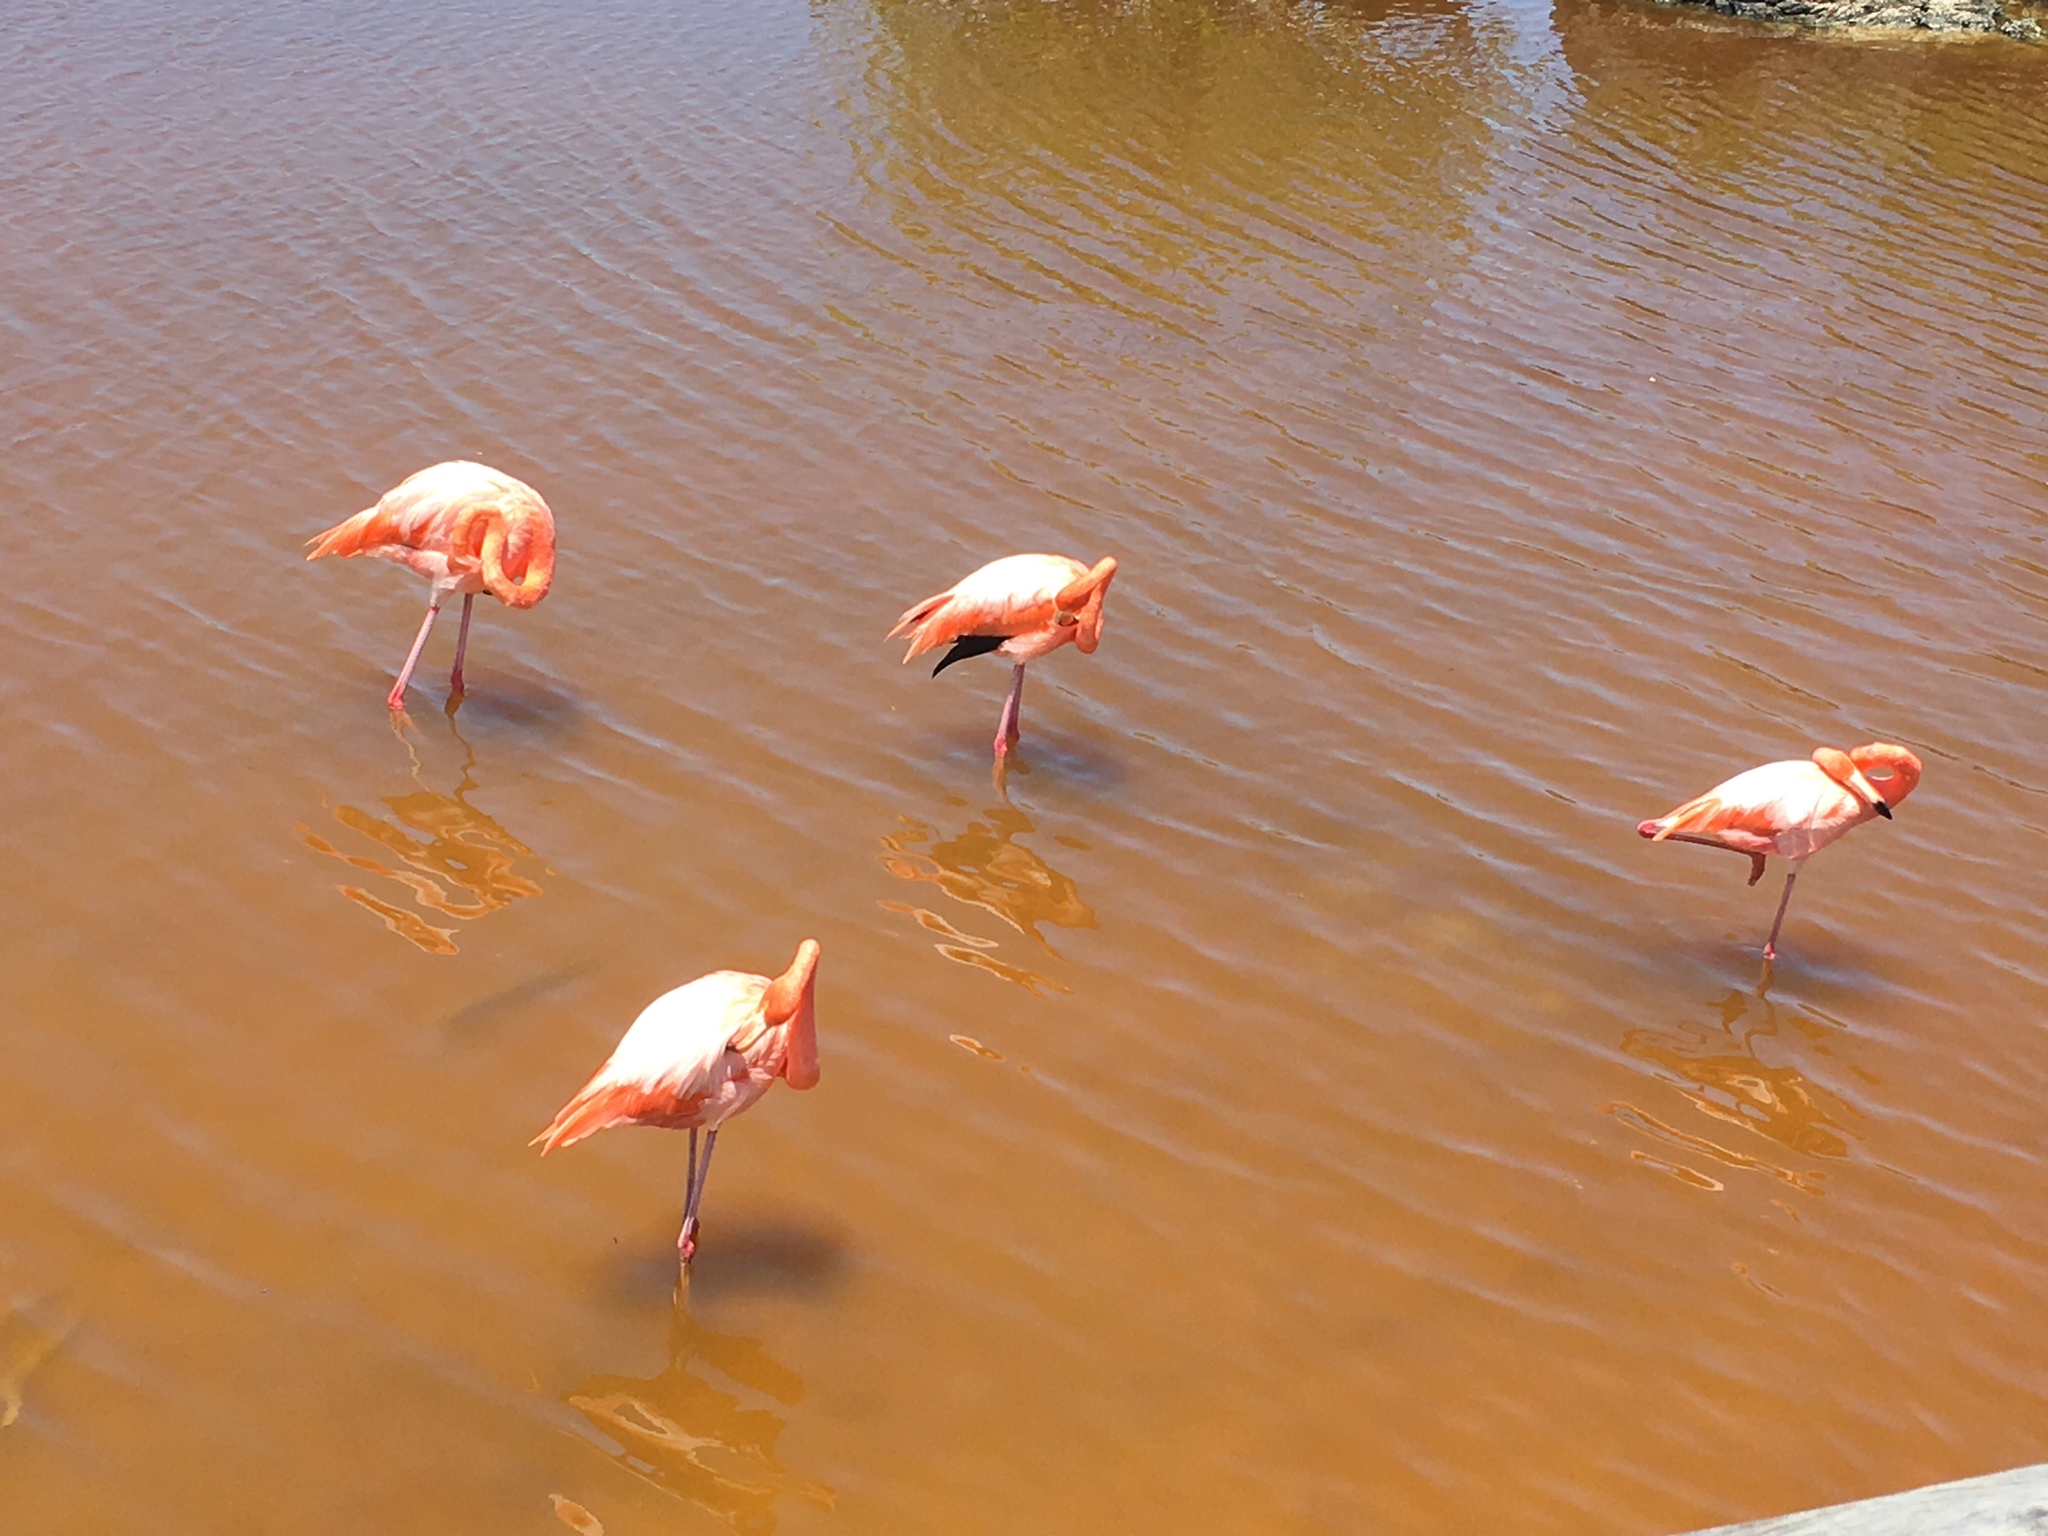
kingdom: Animalia
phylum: Chordata
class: Aves
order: Phoenicopteriformes
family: Phoenicopteridae
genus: Phoenicopterus
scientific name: Phoenicopterus ruber
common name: American flamingo
